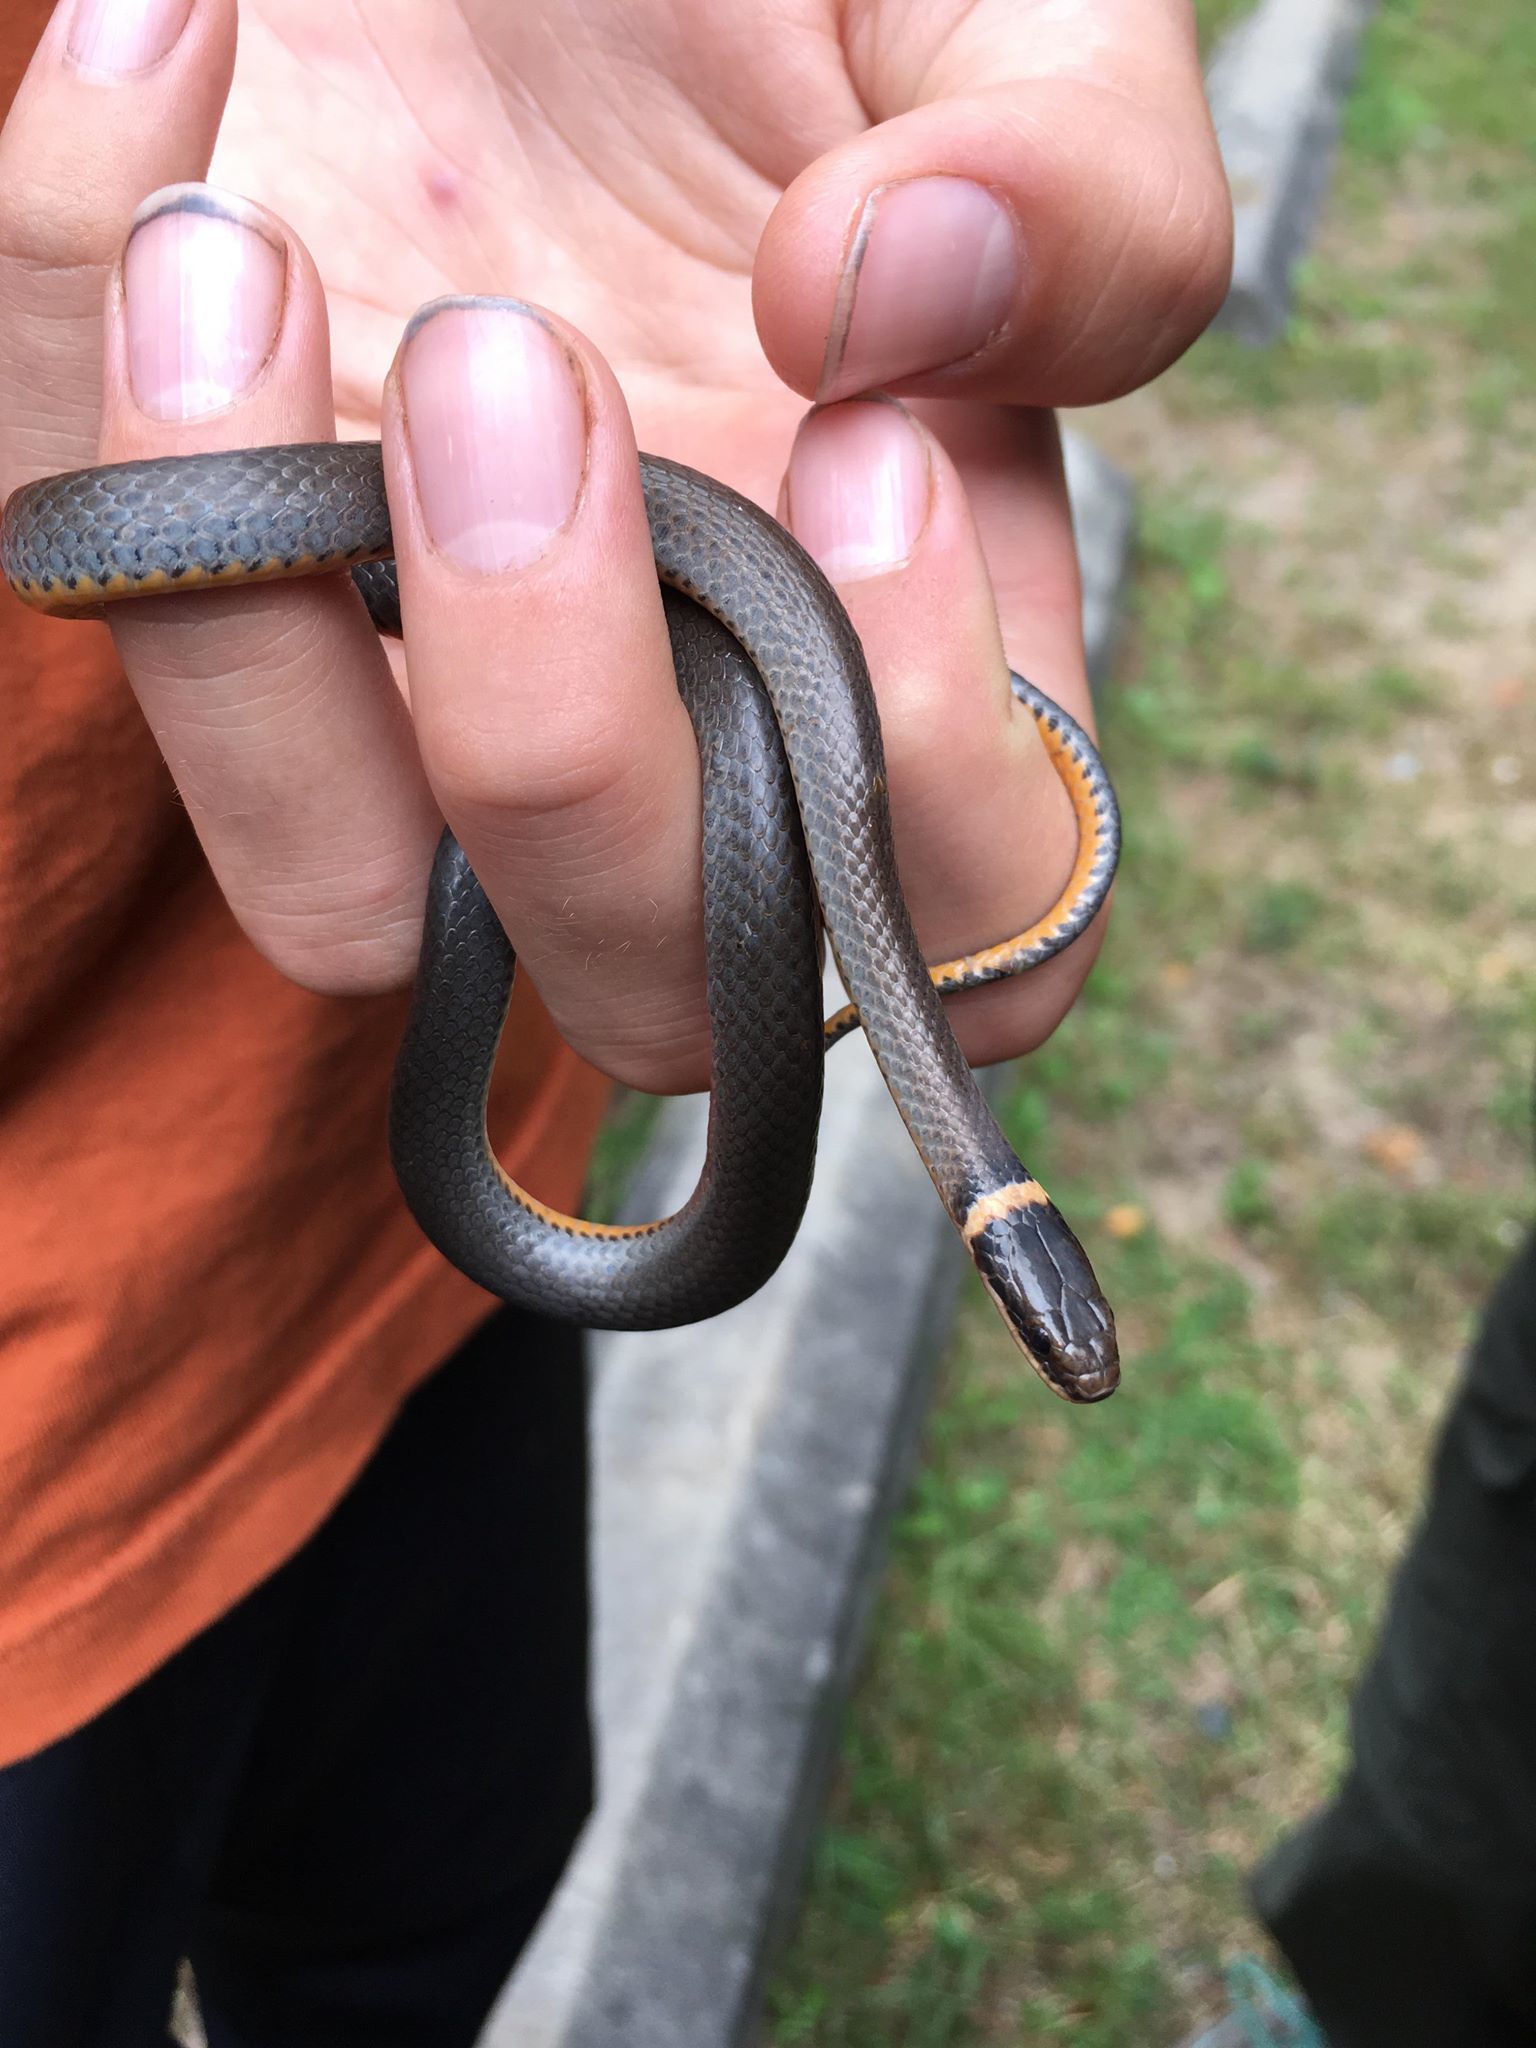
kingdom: Animalia
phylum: Chordata
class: Squamata
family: Colubridae
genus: Diadophis
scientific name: Diadophis punctatus
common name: Ringneck snake
